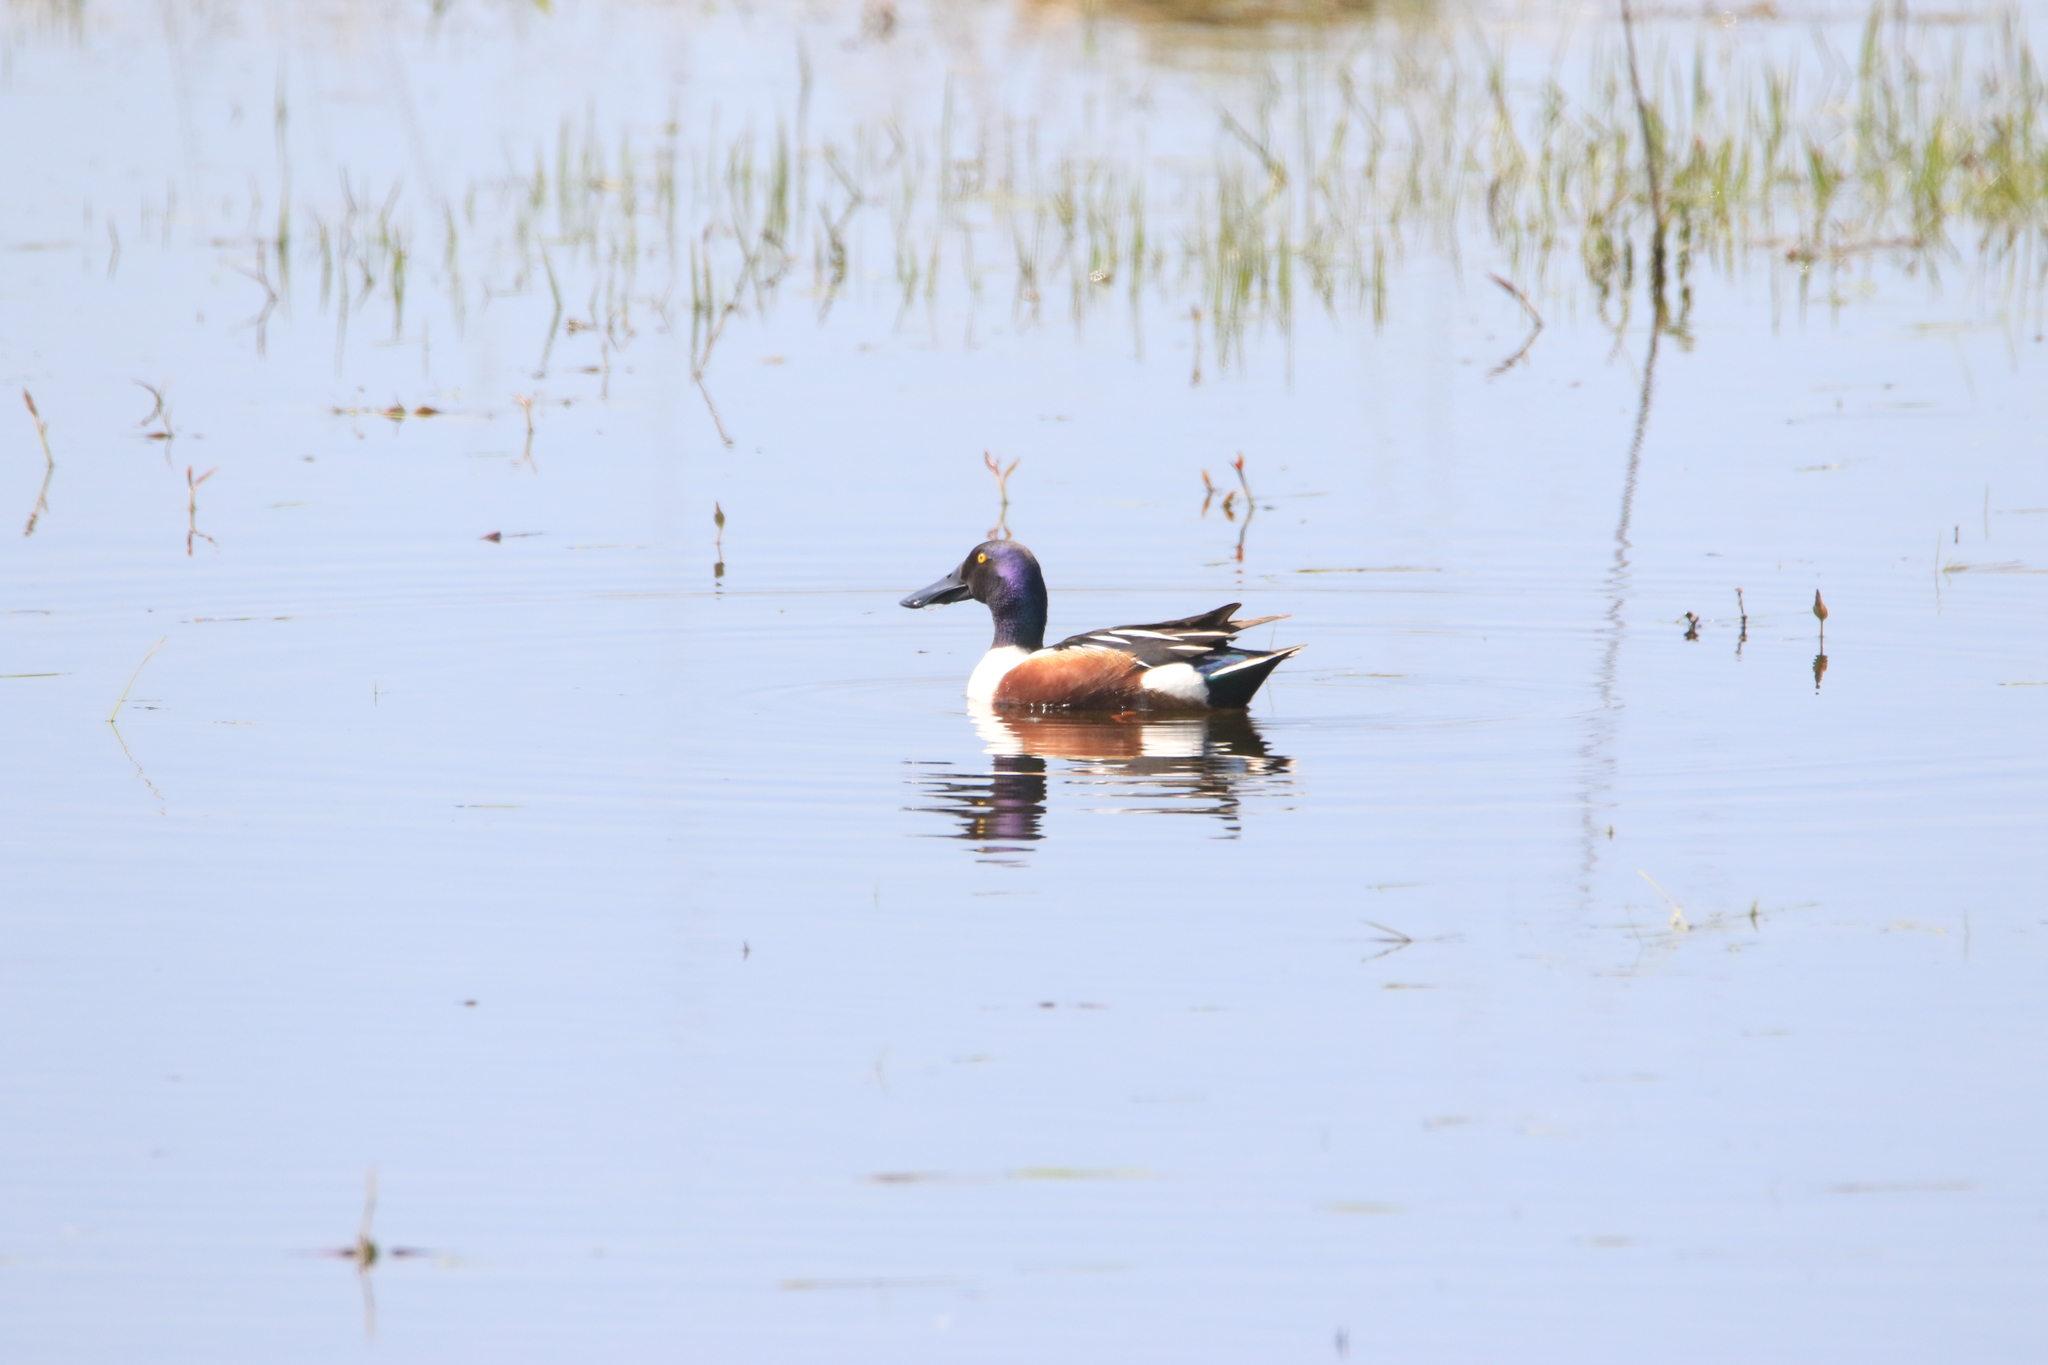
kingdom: Animalia
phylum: Chordata
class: Aves
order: Anseriformes
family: Anatidae
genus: Spatula
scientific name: Spatula clypeata
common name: Northern shoveler
